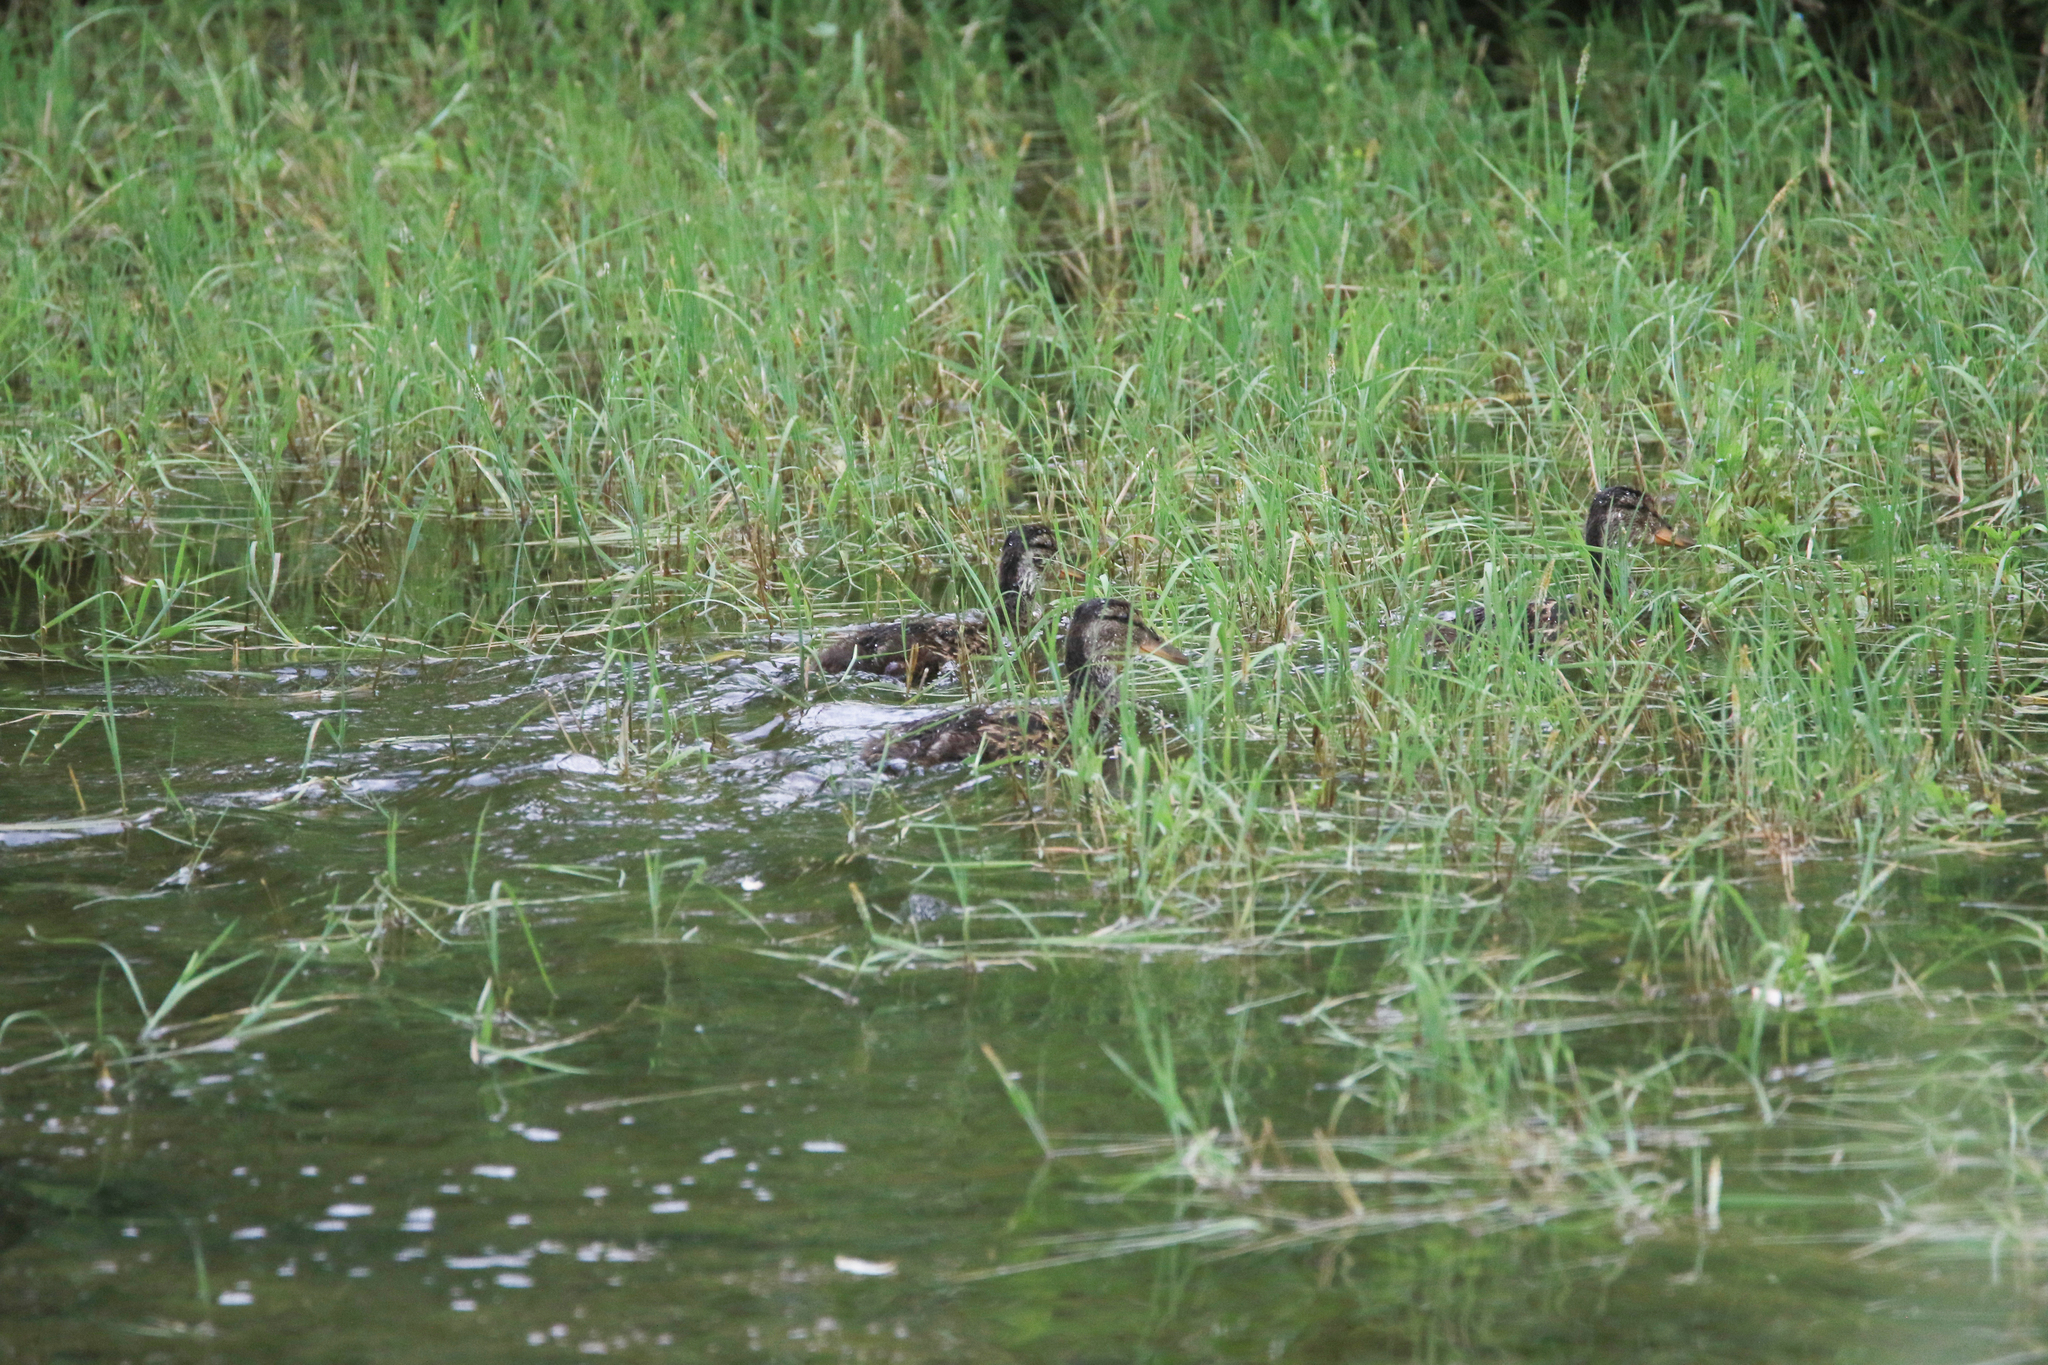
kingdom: Animalia
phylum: Chordata
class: Aves
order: Anseriformes
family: Anatidae
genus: Anas
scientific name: Anas platyrhynchos
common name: Mallard
